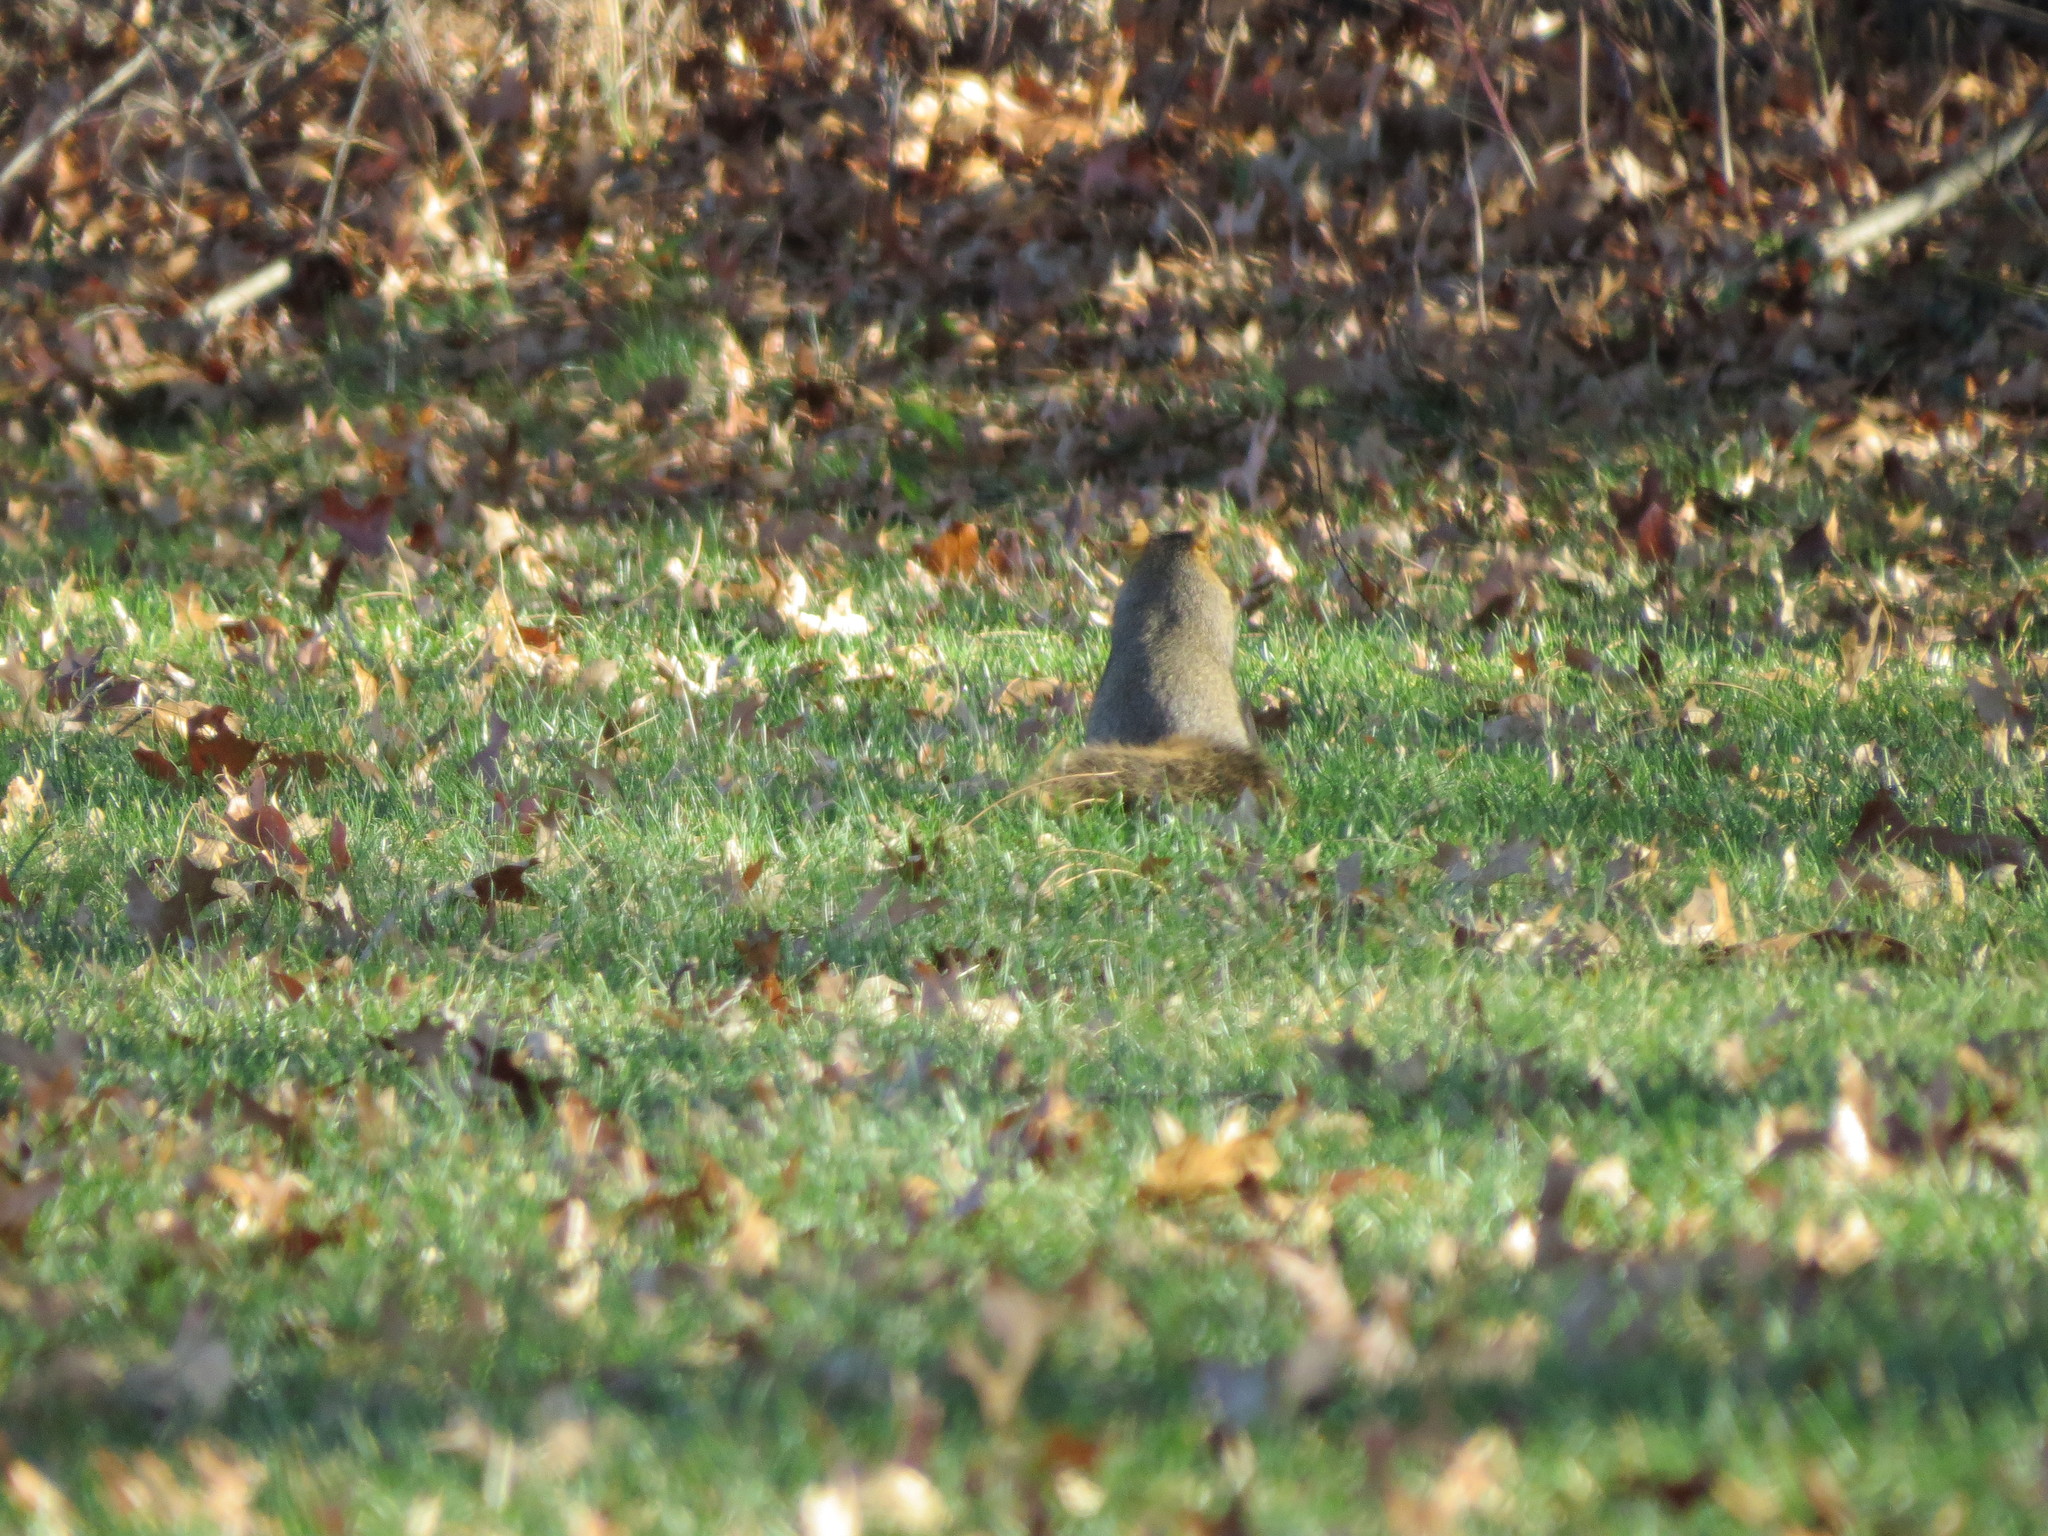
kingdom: Animalia
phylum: Chordata
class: Mammalia
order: Rodentia
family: Sciuridae
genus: Sciurus
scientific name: Sciurus niger
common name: Fox squirrel
